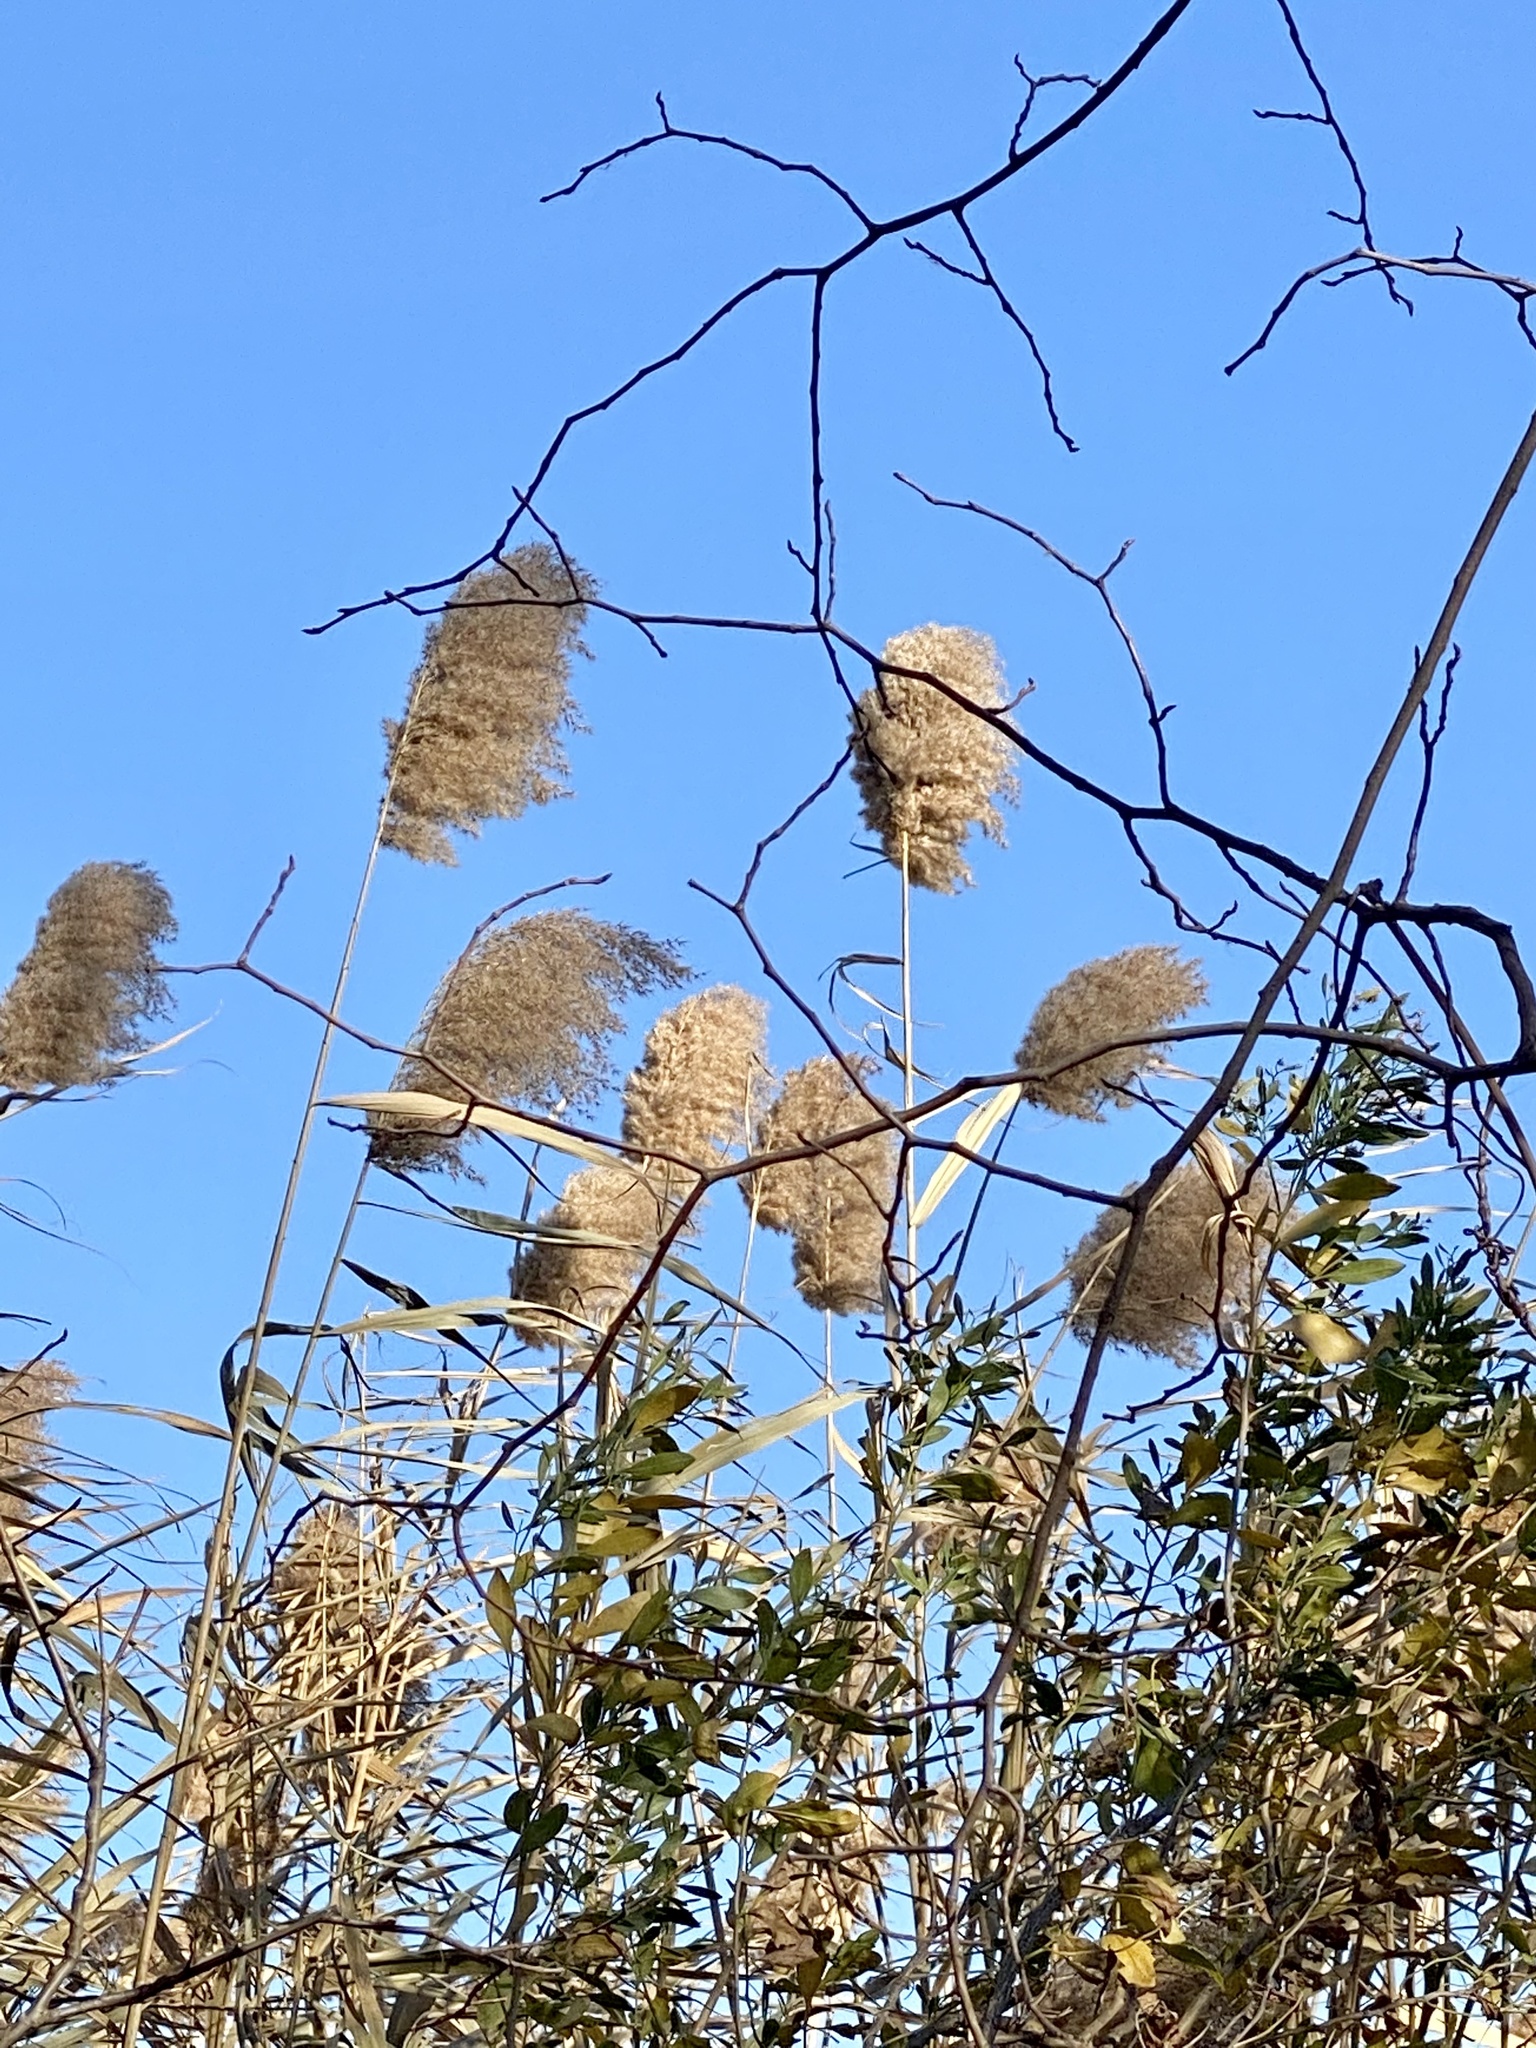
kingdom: Plantae
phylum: Tracheophyta
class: Liliopsida
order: Poales
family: Poaceae
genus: Phragmites
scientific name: Phragmites australis
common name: Common reed
